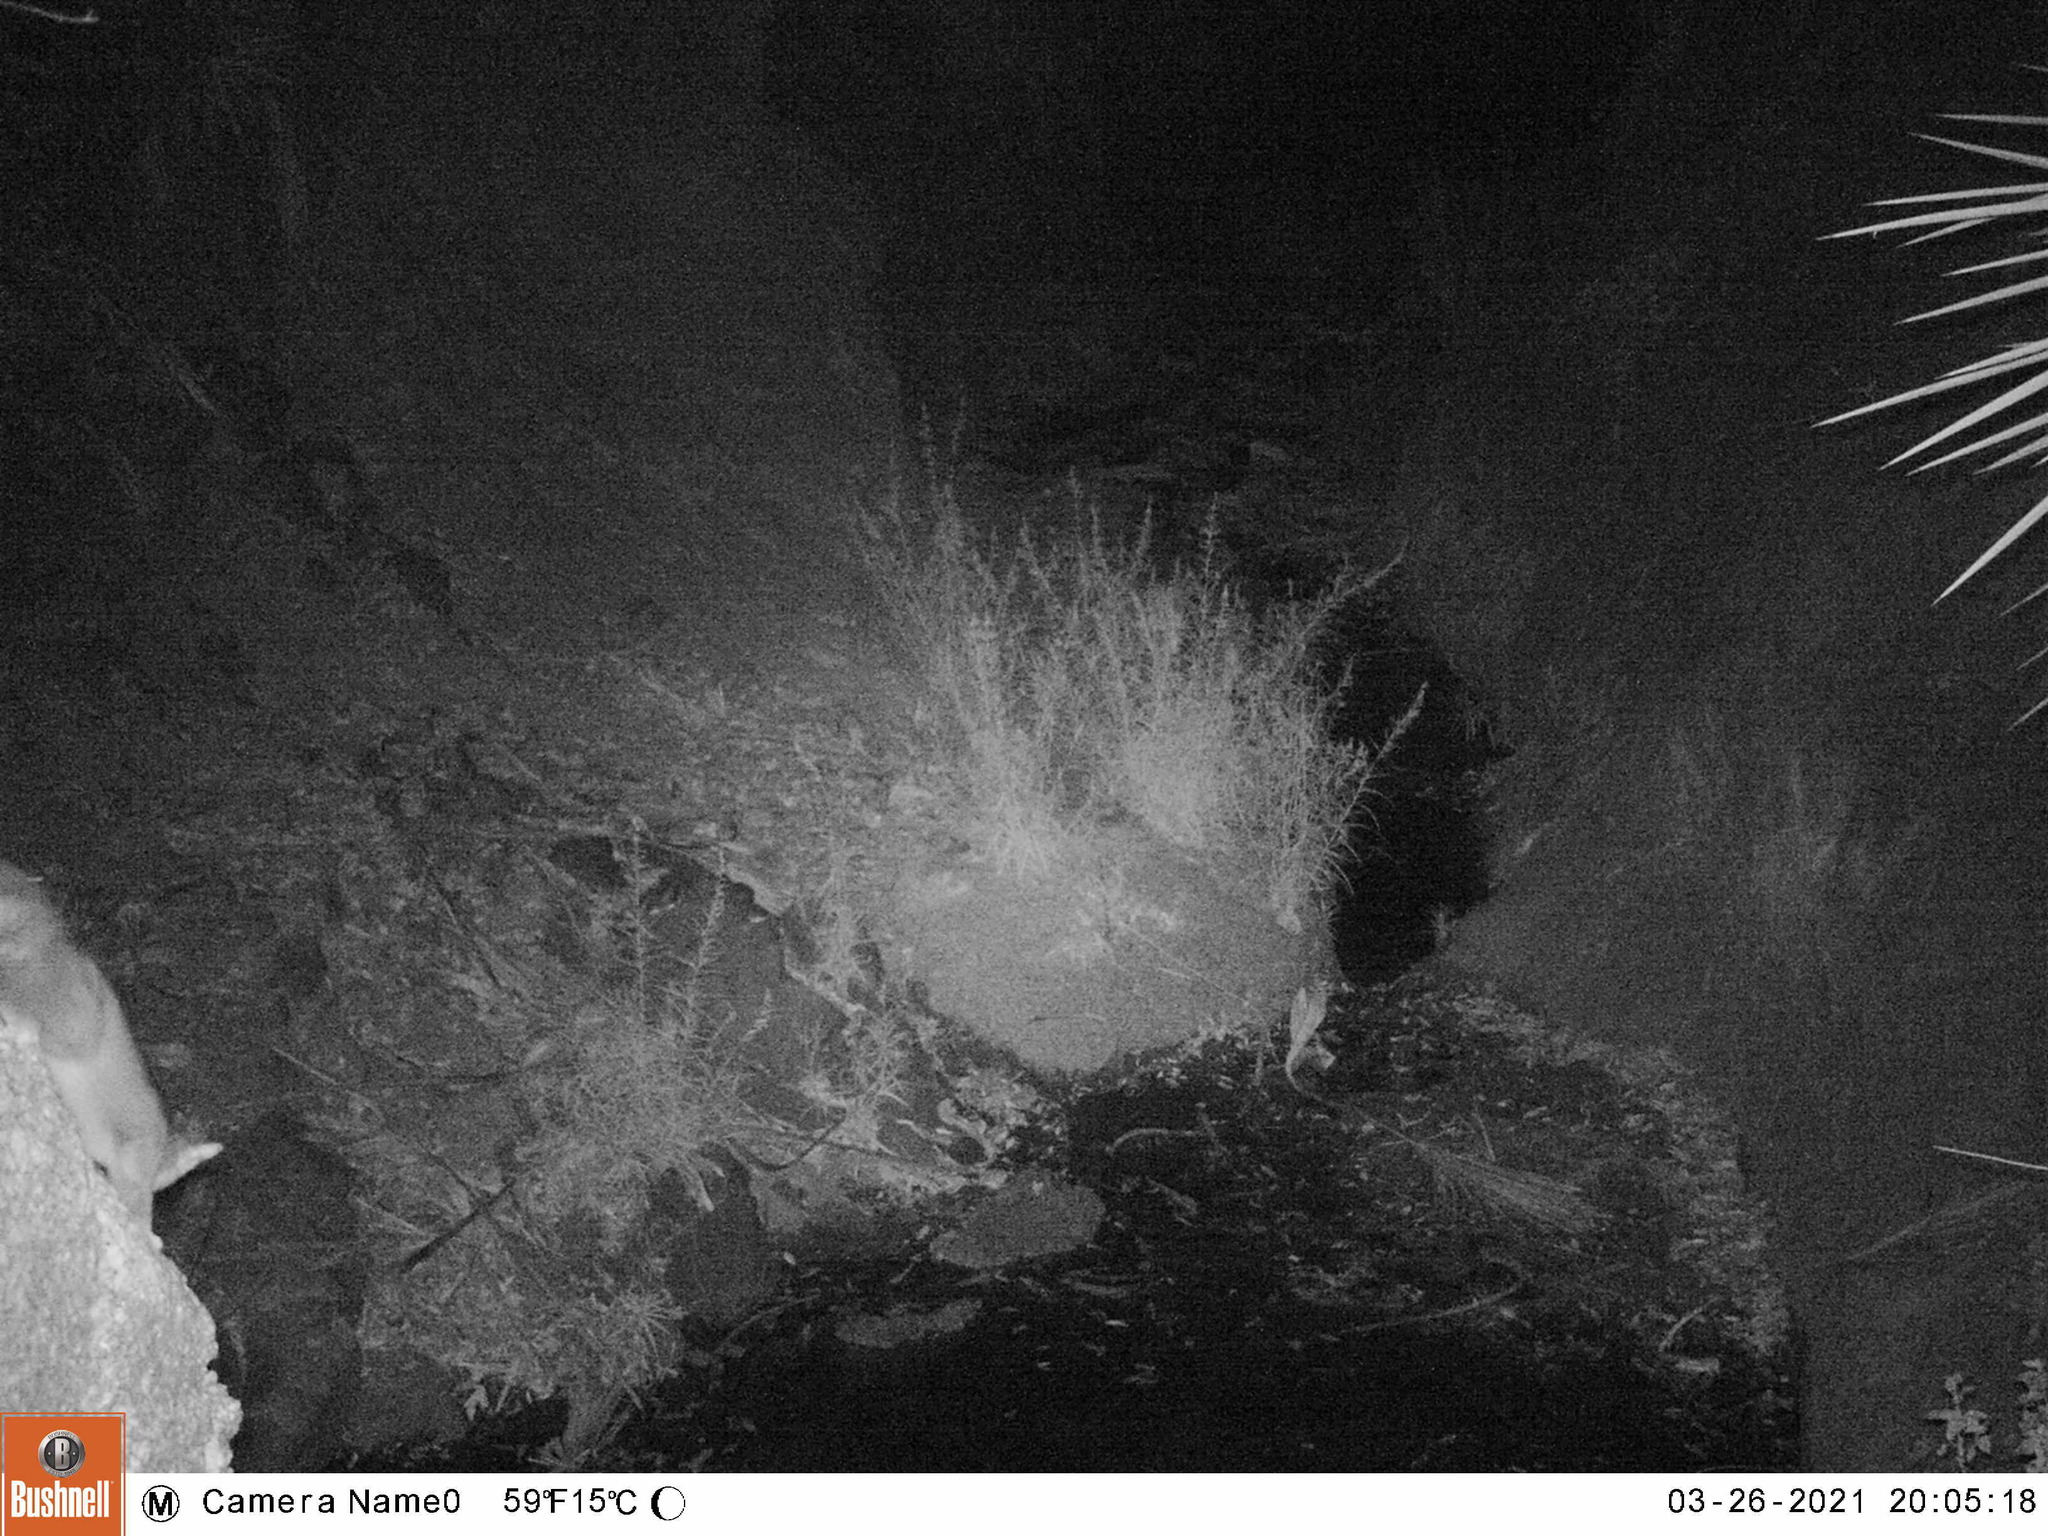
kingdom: Animalia
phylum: Chordata
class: Mammalia
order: Carnivora
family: Procyonidae
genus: Bassariscus
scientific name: Bassariscus astutus
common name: Ringtail
